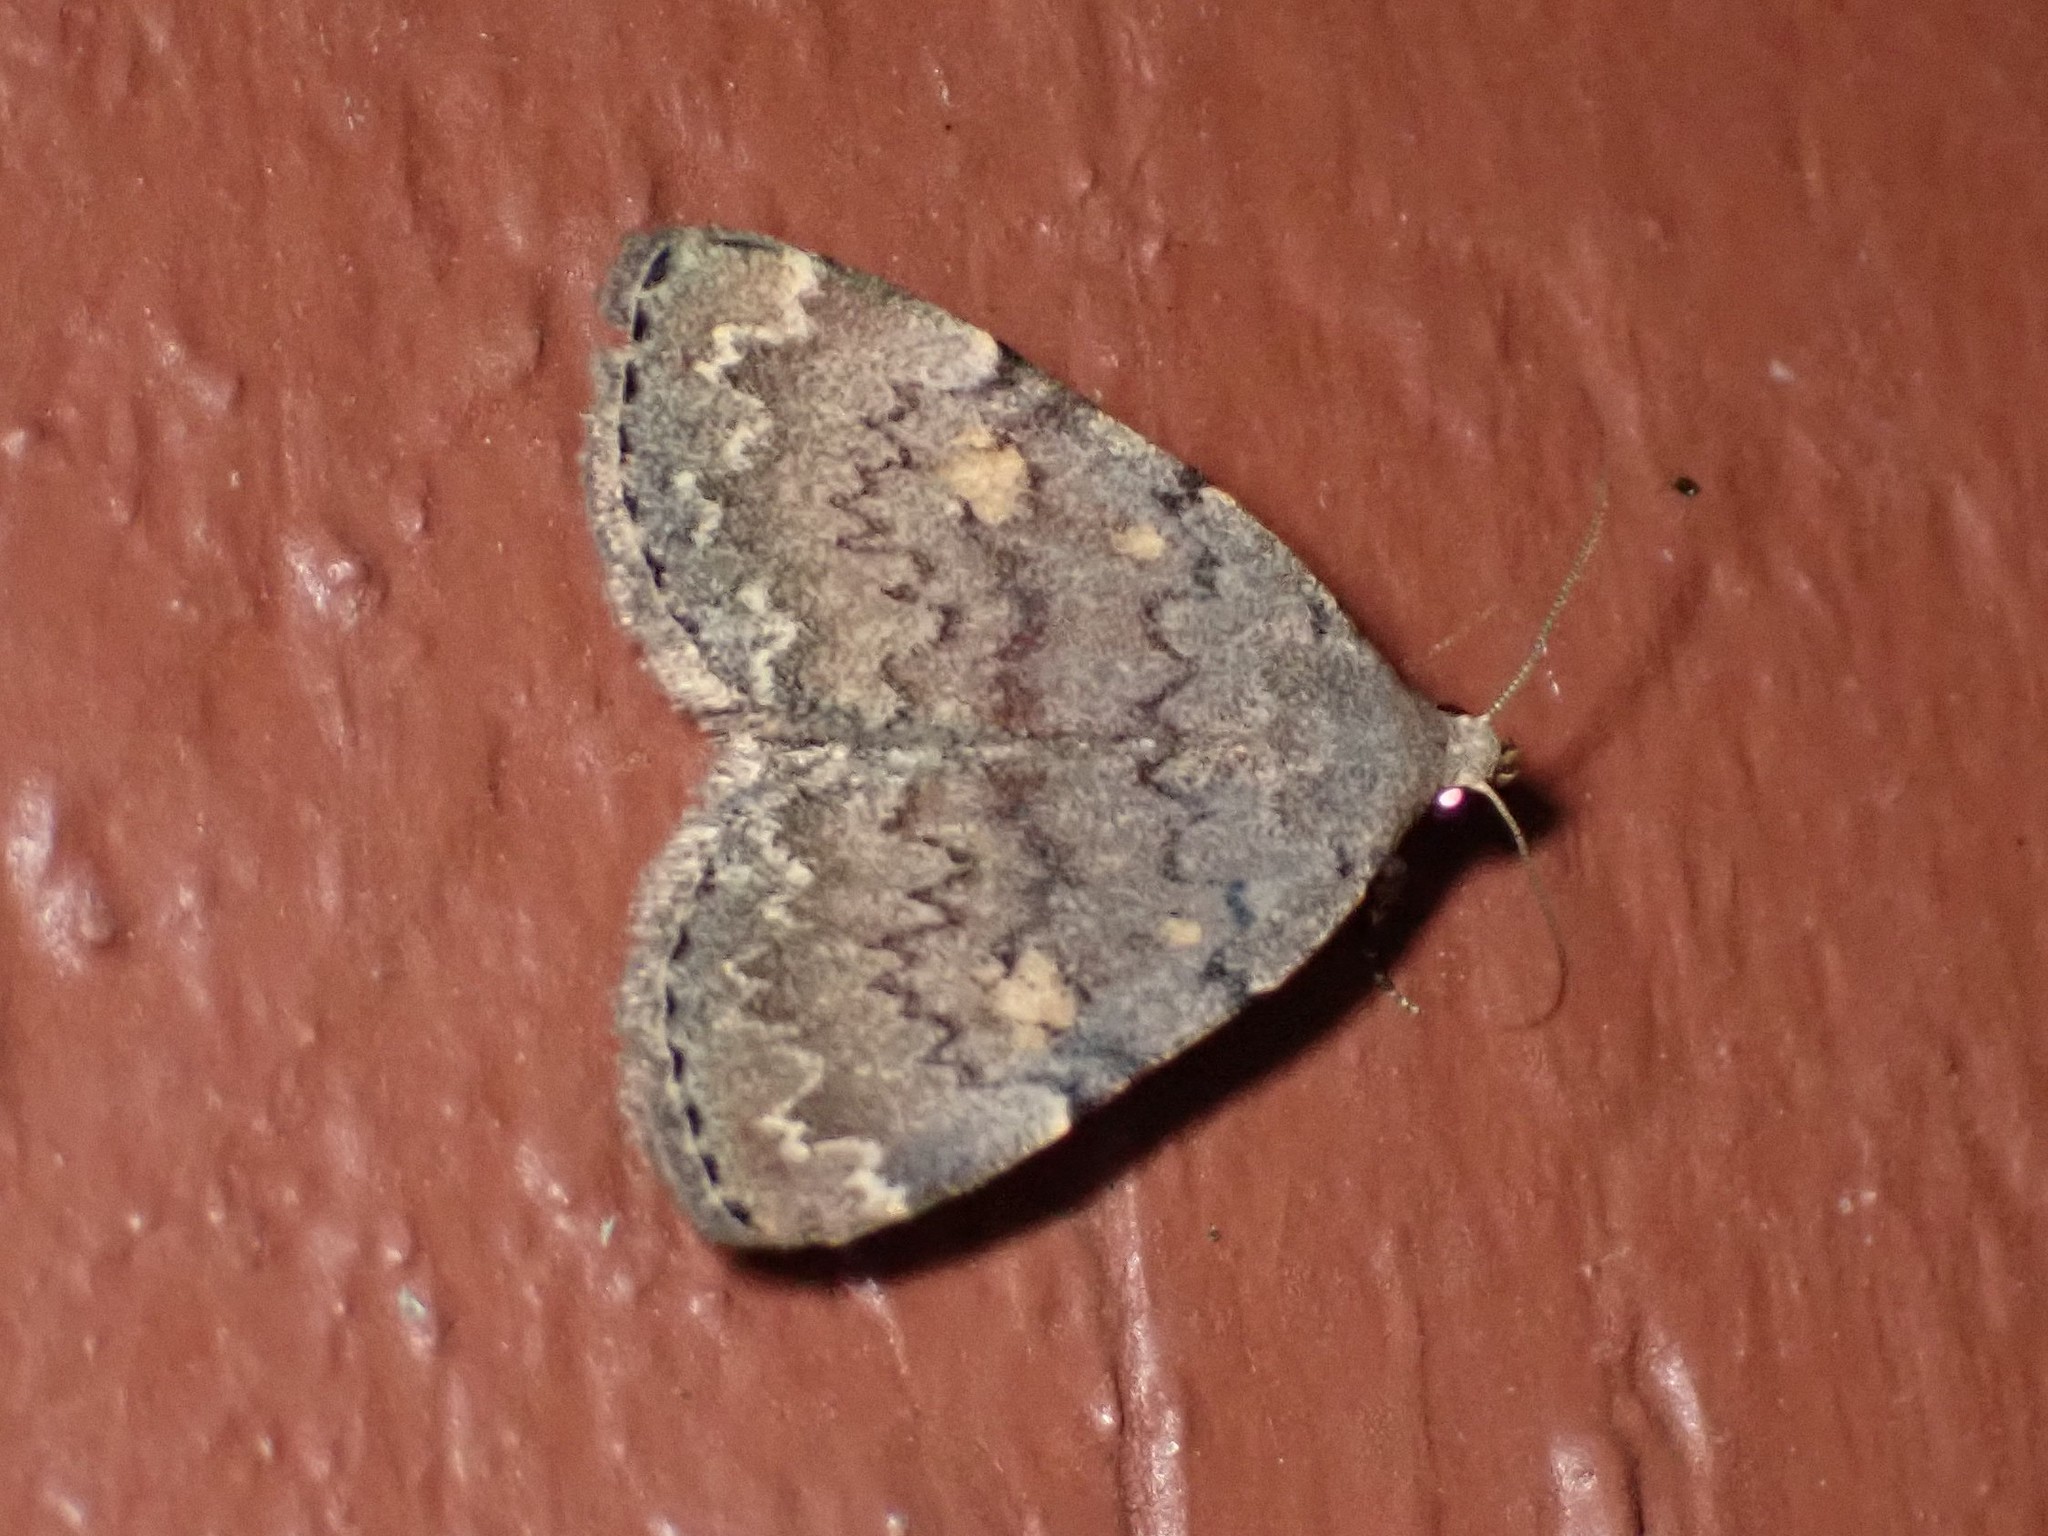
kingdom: Animalia
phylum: Arthropoda
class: Insecta
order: Lepidoptera
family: Erebidae
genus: Idia
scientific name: Idia aemula
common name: Common idia moth
